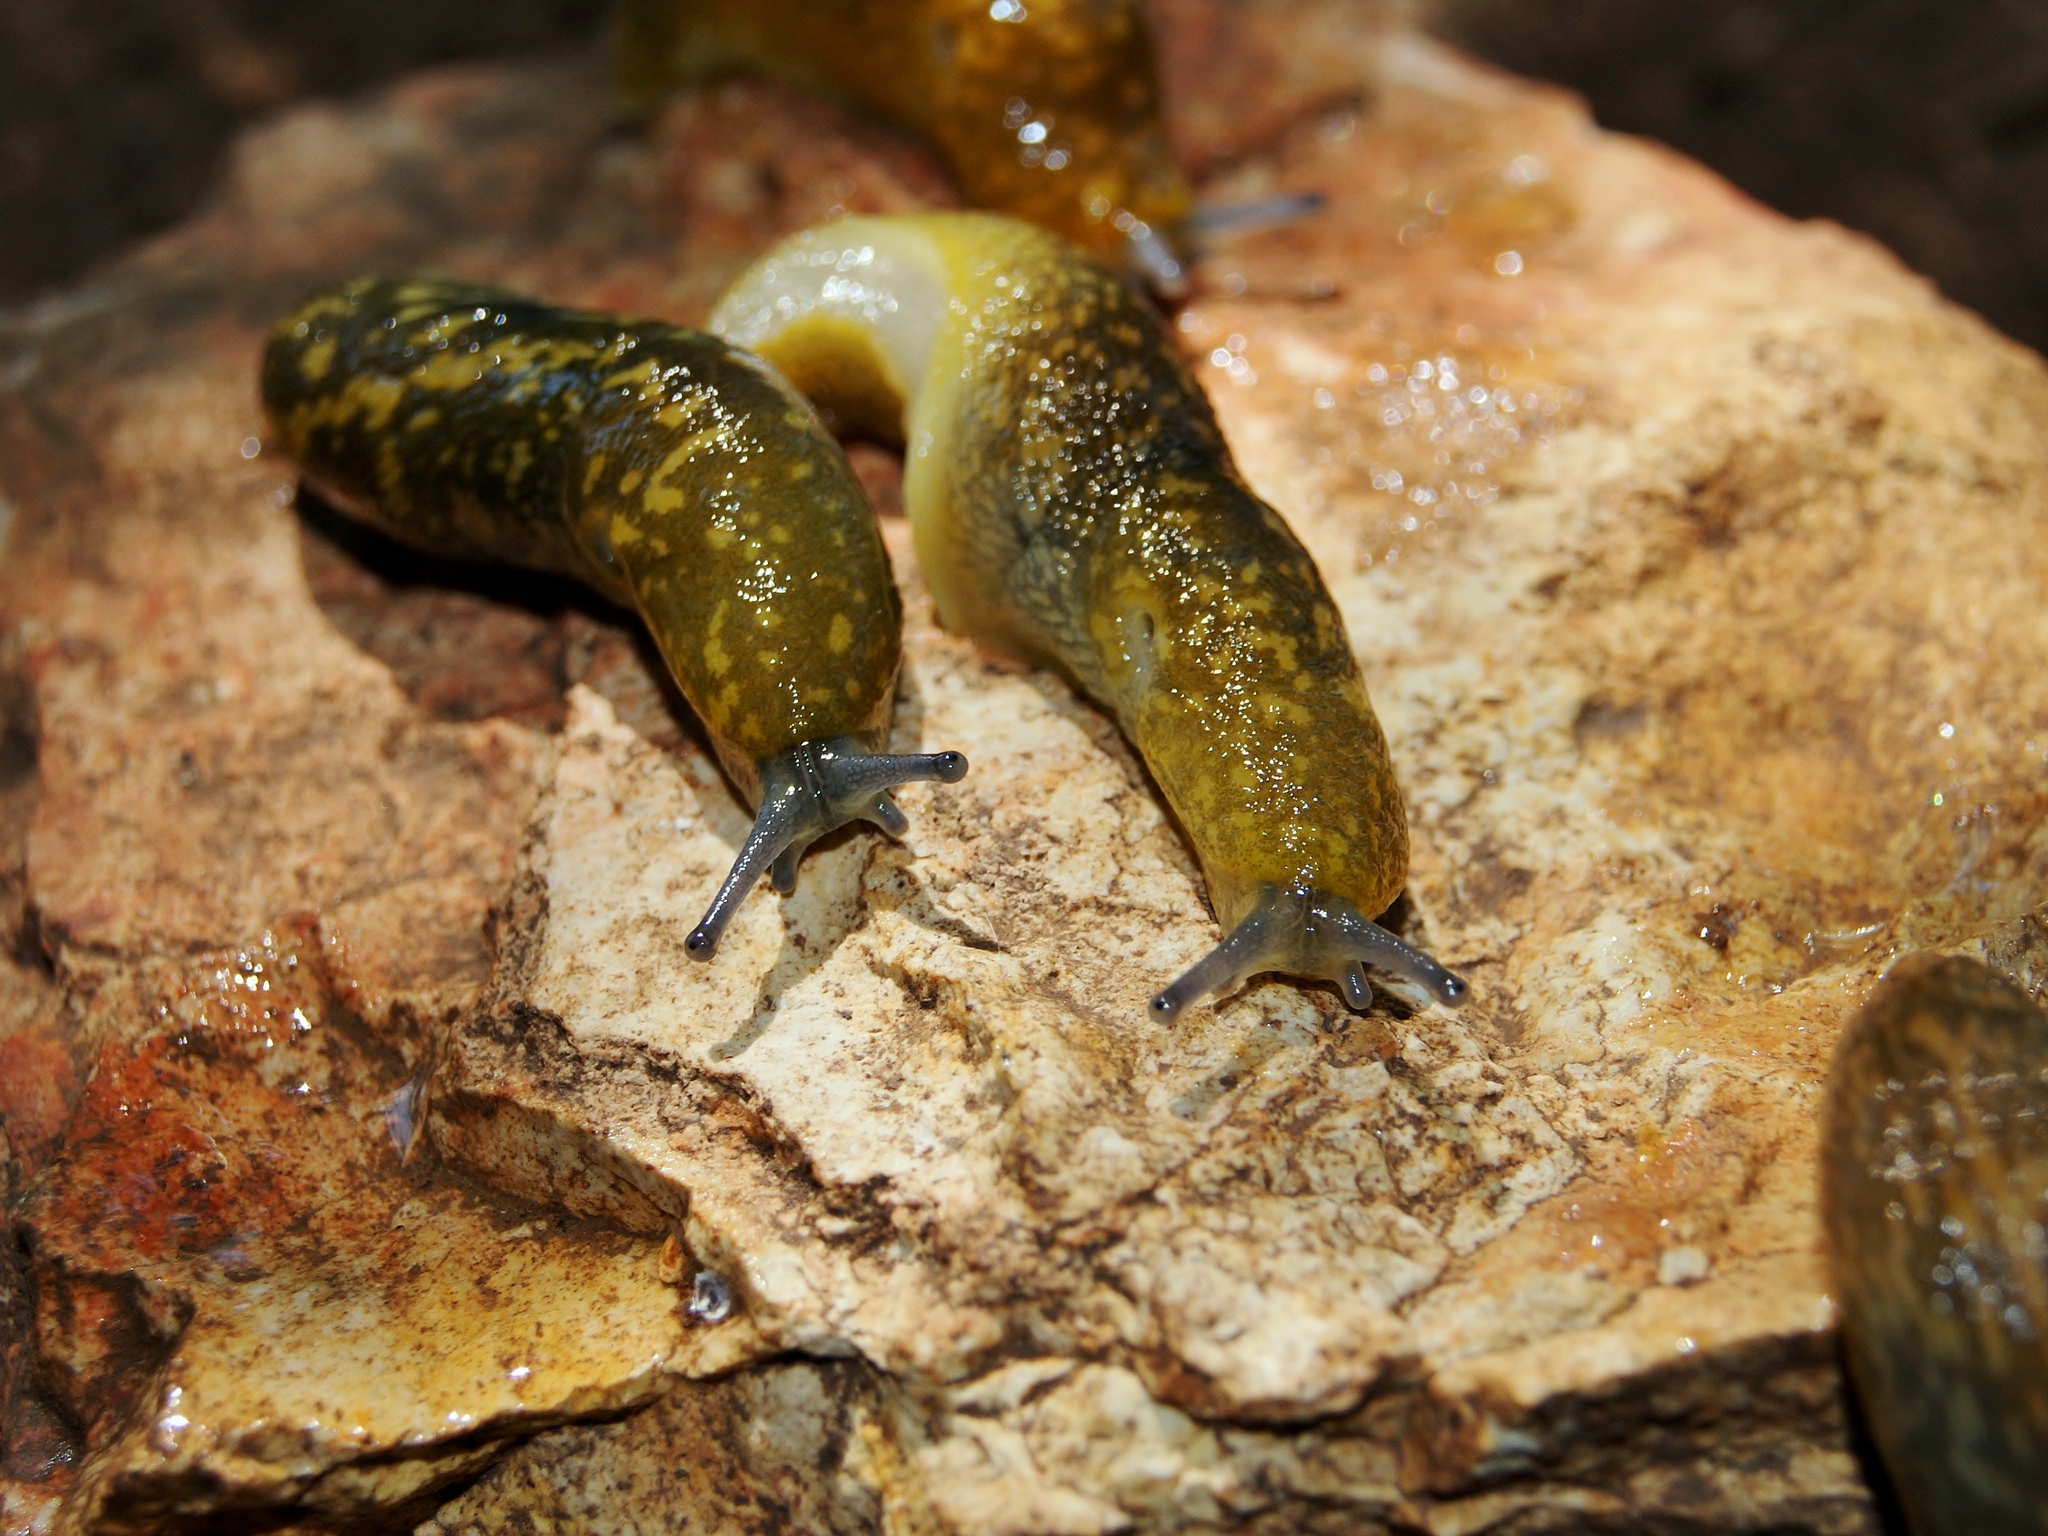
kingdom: Animalia
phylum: Mollusca
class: Gastropoda
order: Stylommatophora
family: Limacidae
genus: Limacus
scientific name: Limacus flavus
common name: Yellow gardenslug
